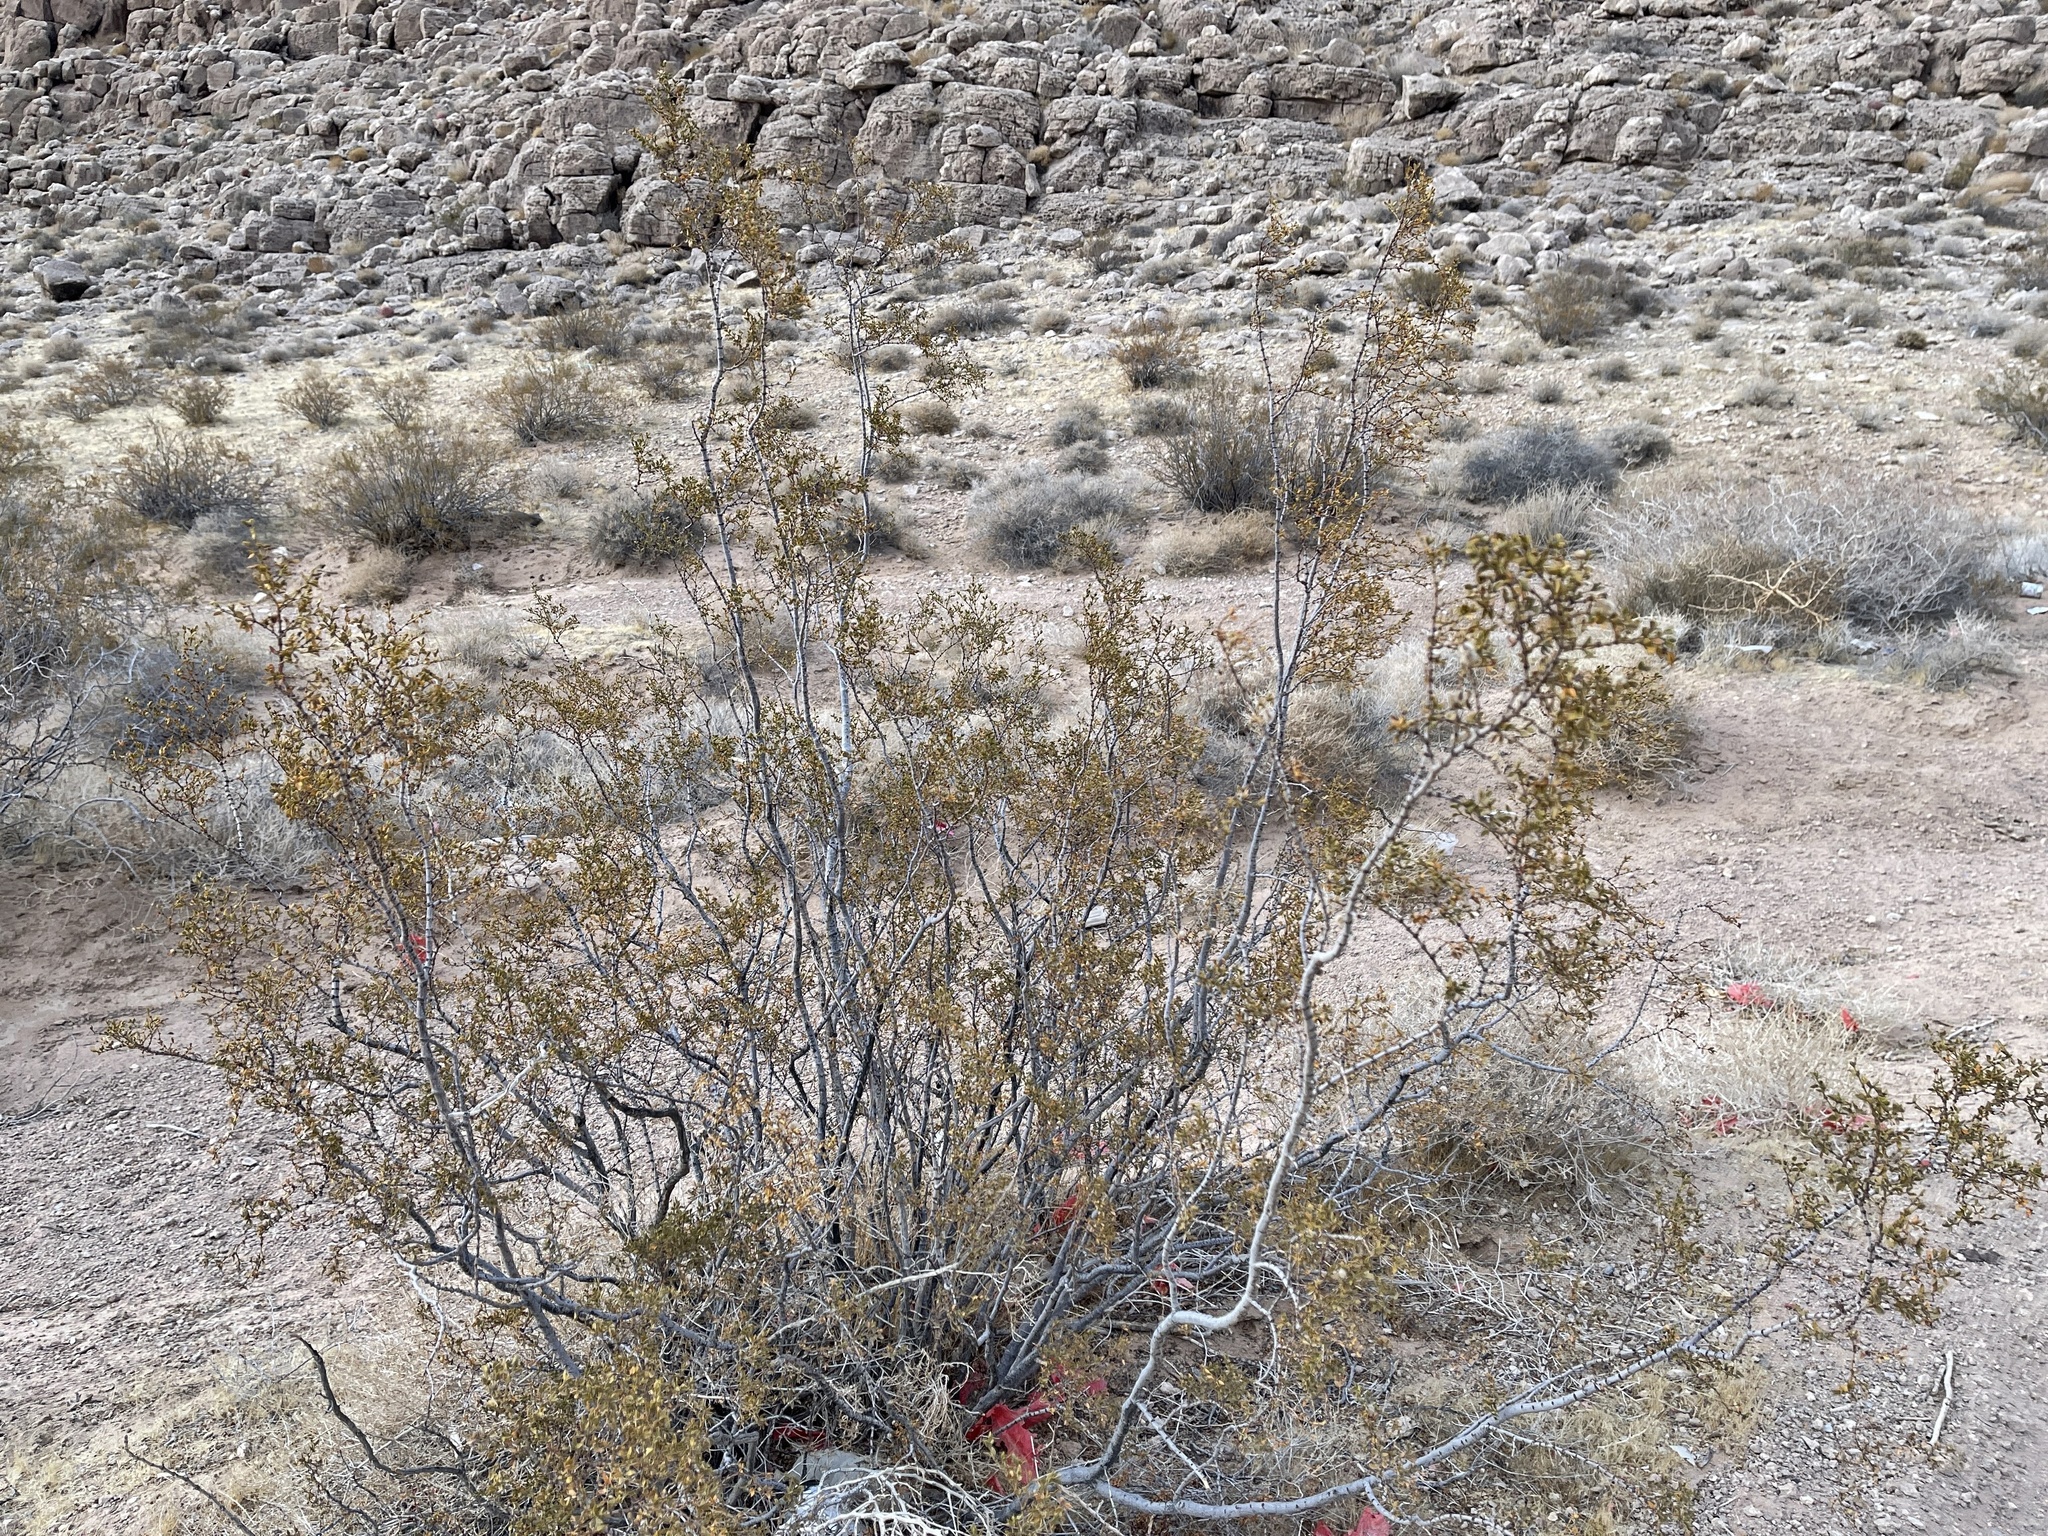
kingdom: Plantae
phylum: Tracheophyta
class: Magnoliopsida
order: Zygophyllales
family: Zygophyllaceae
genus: Larrea
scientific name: Larrea tridentata
